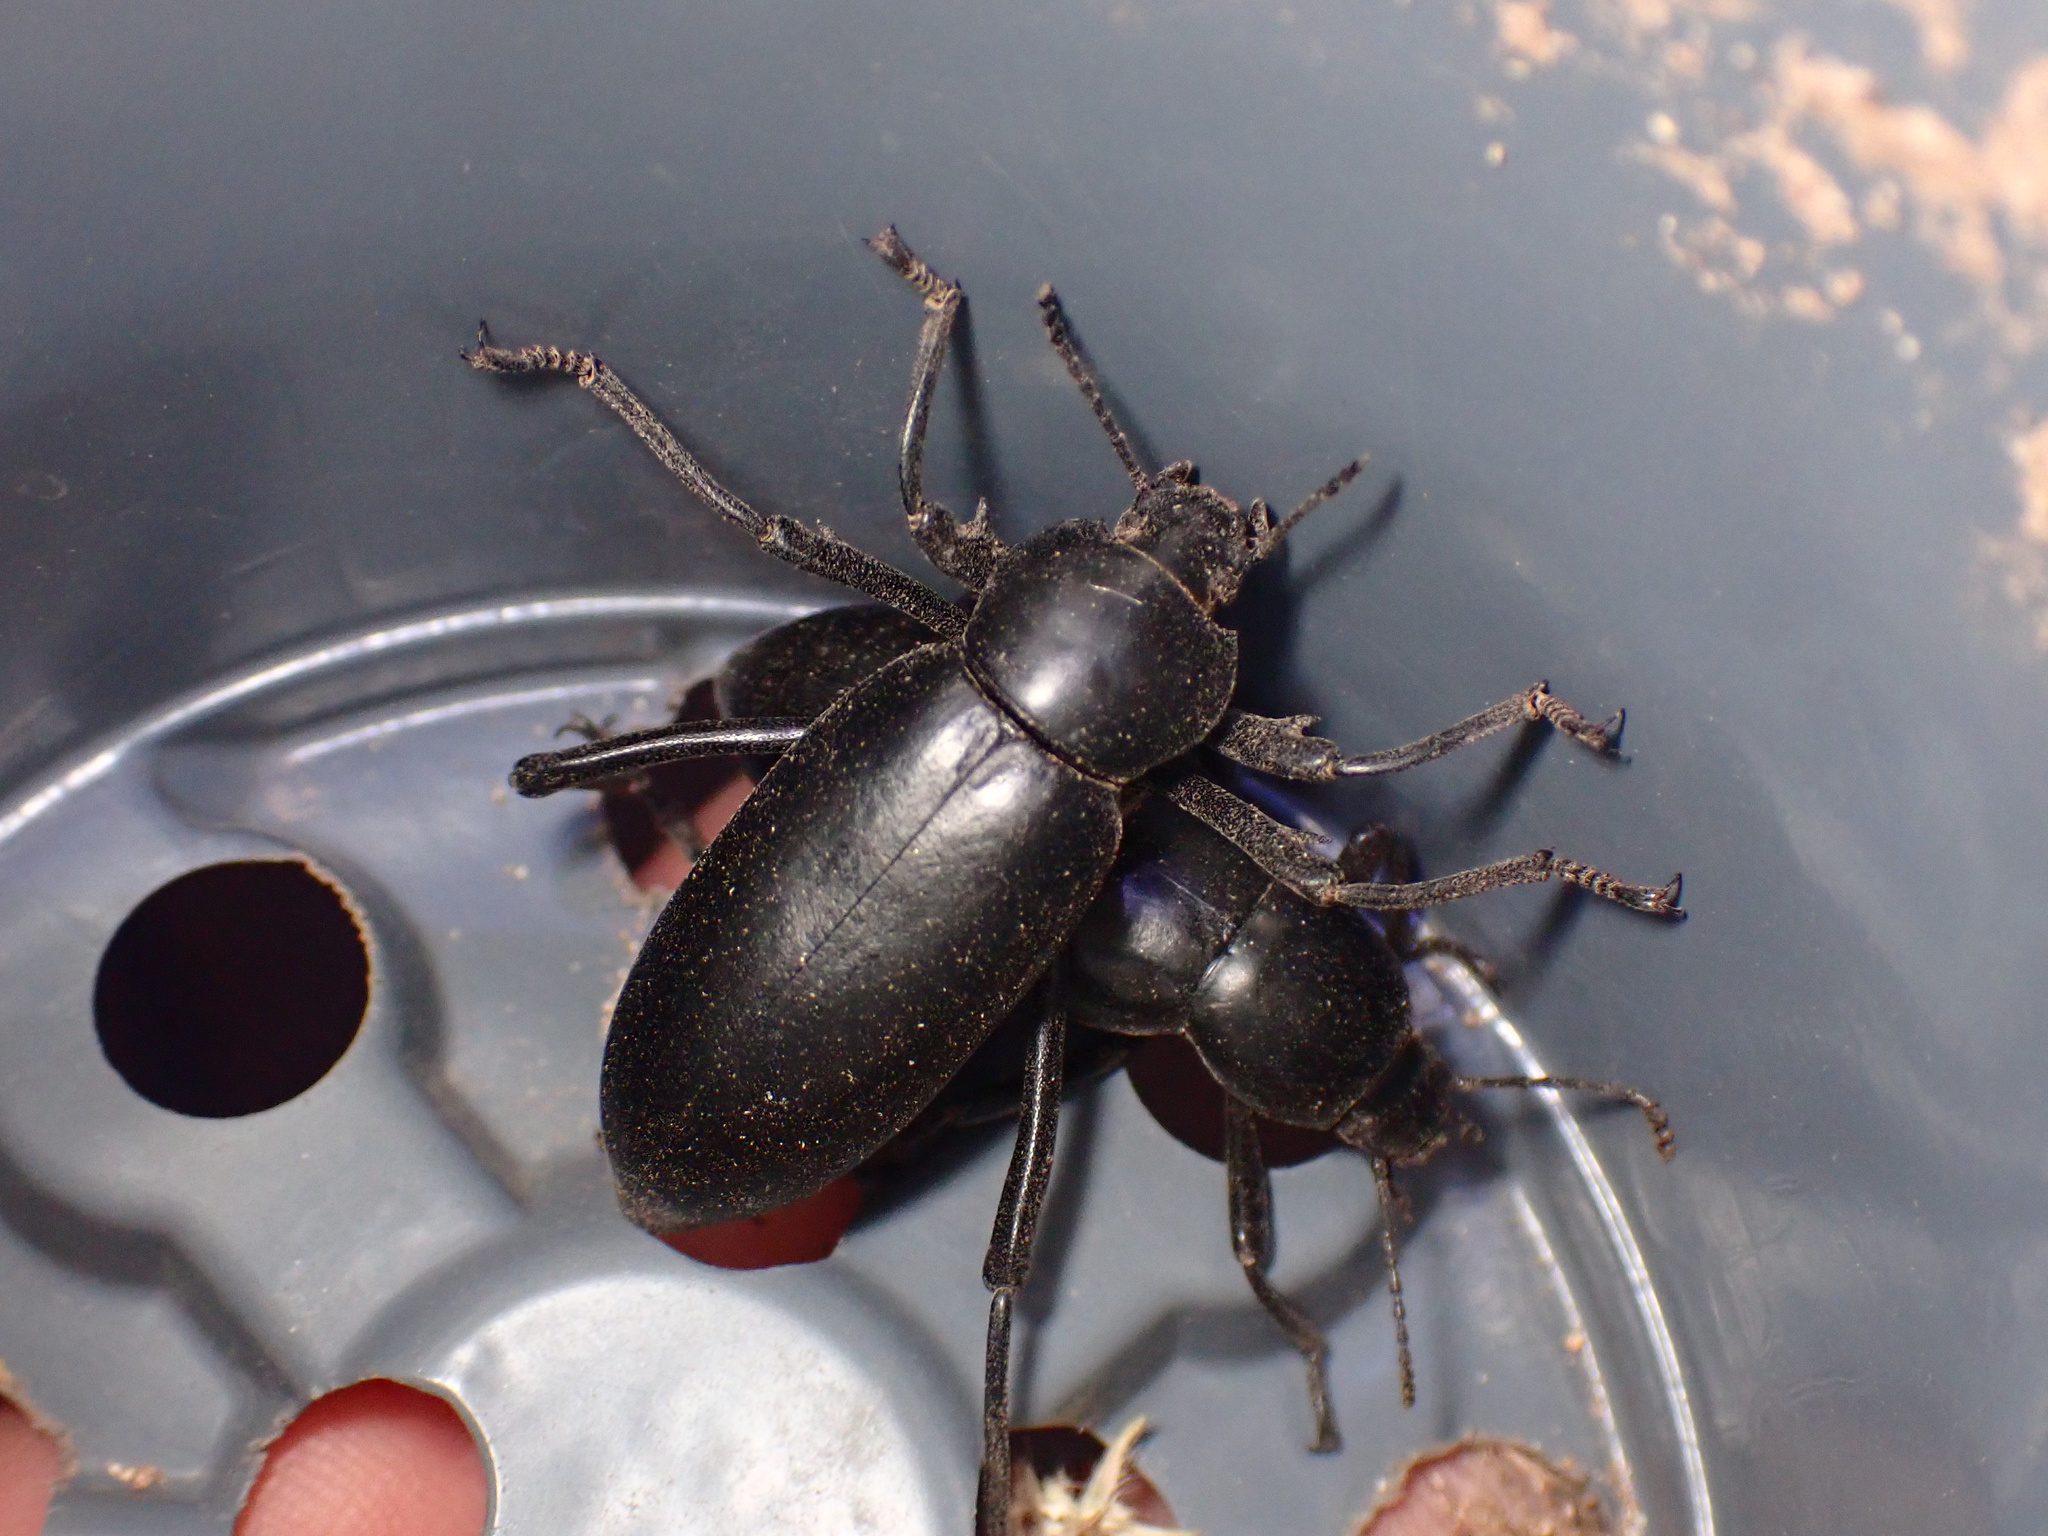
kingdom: Animalia
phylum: Arthropoda
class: Insecta
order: Coleoptera
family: Tenebrionidae
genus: Eleodes
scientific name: Eleodes armata
